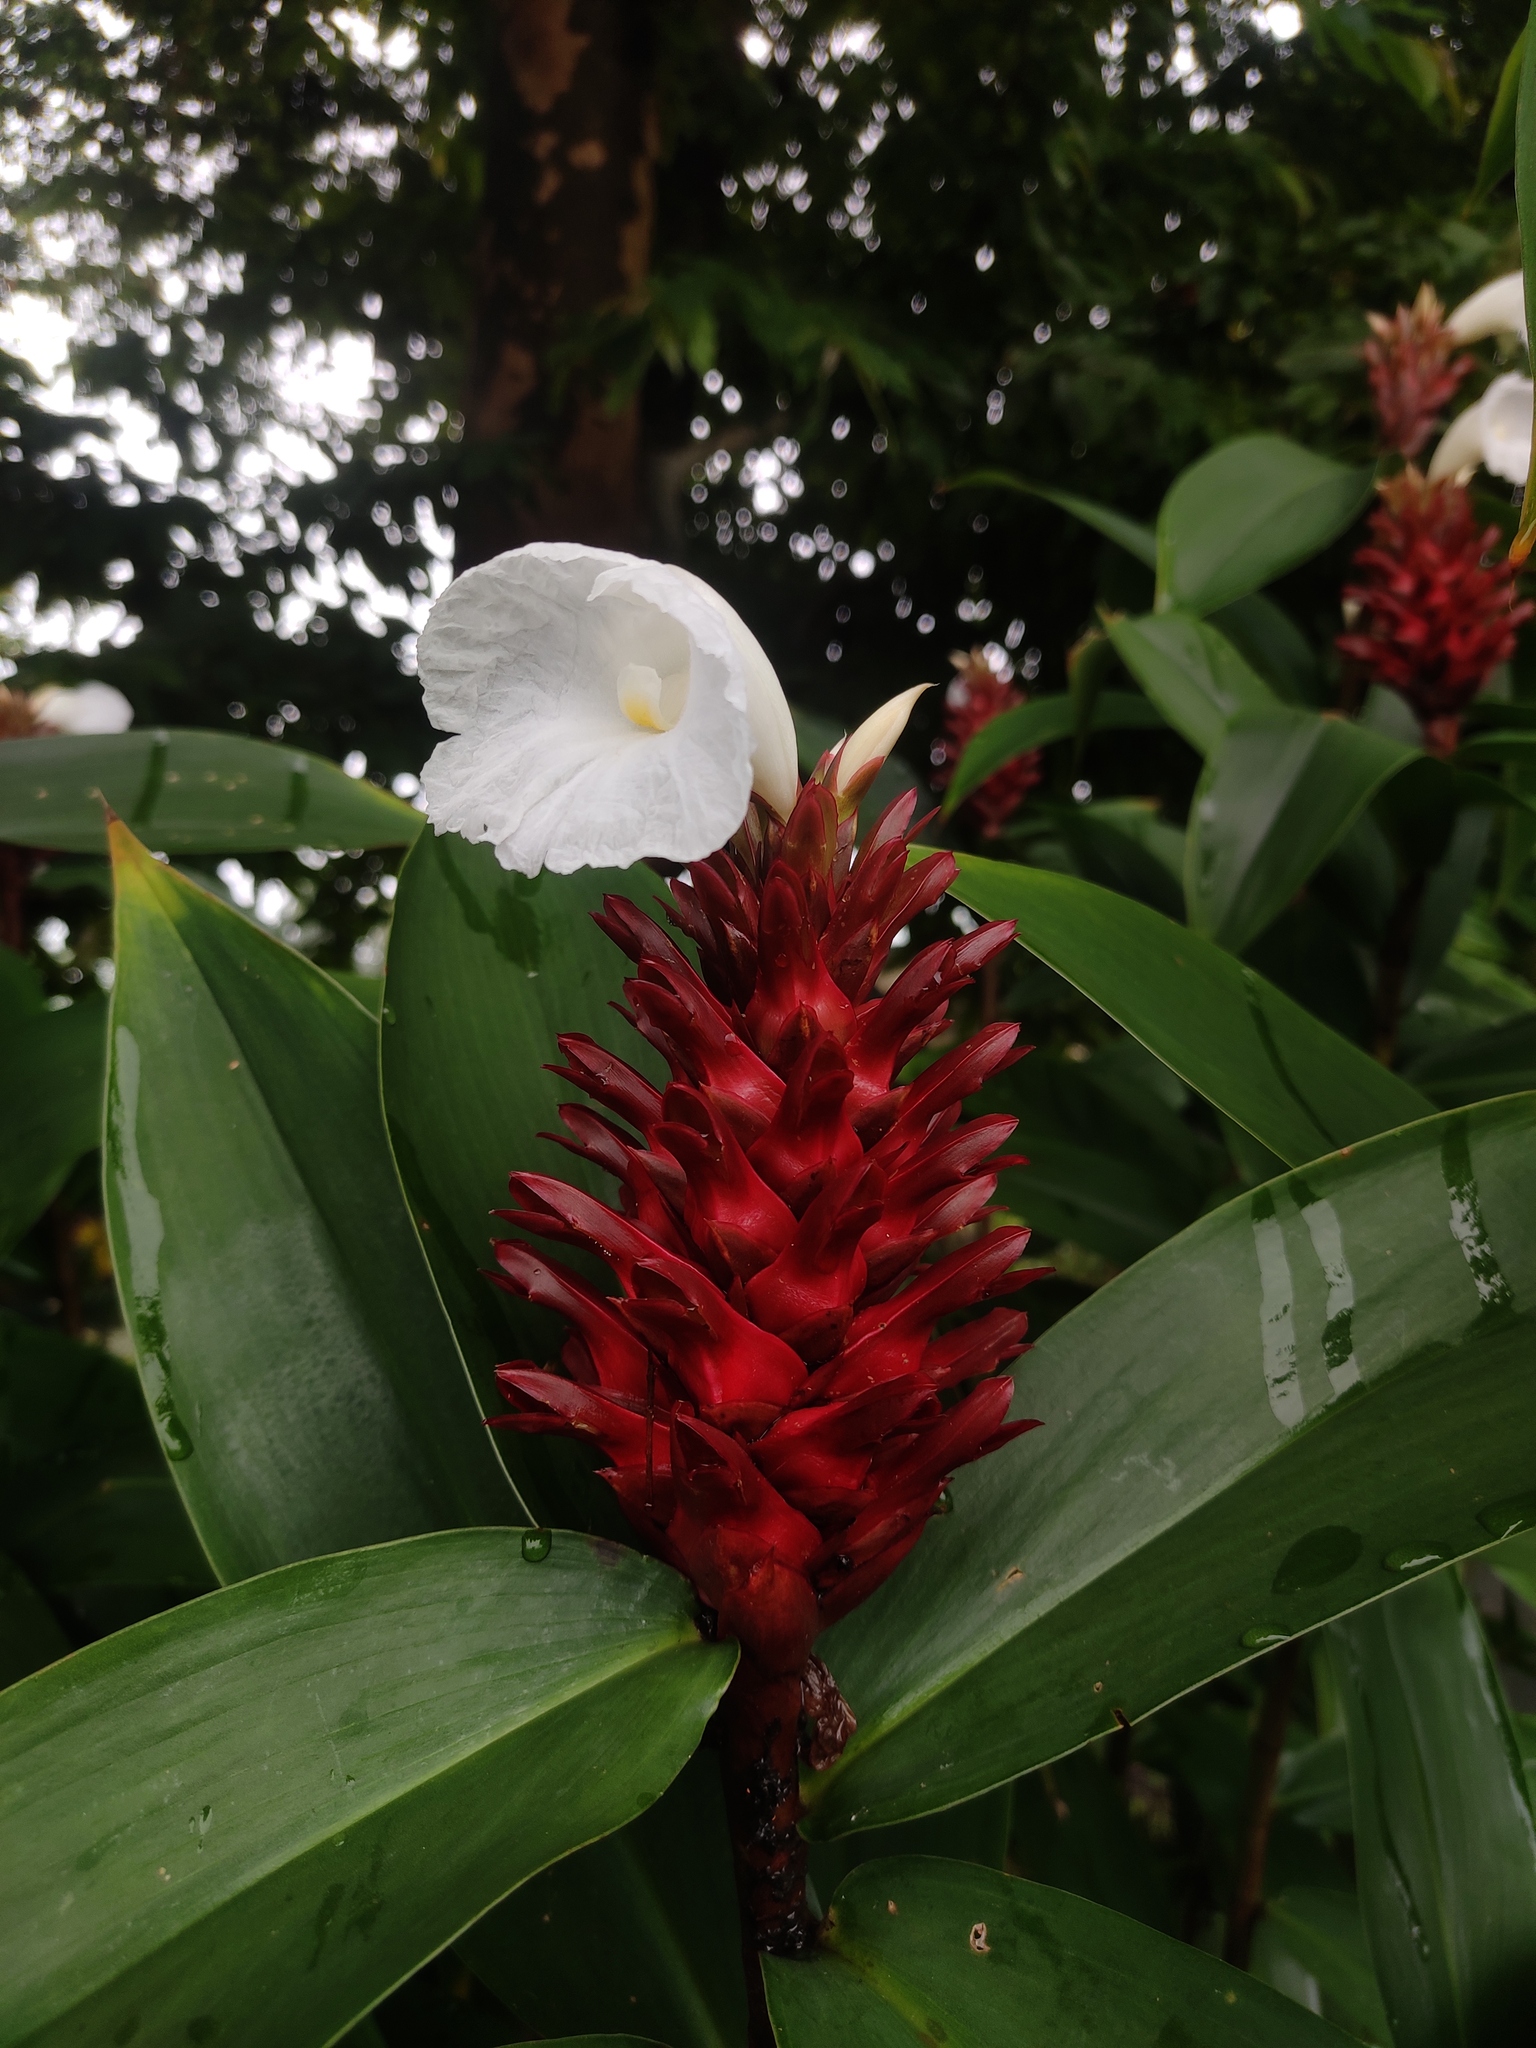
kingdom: Plantae
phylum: Tracheophyta
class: Liliopsida
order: Zingiberales
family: Costaceae
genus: Hellenia
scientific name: Hellenia speciosa
